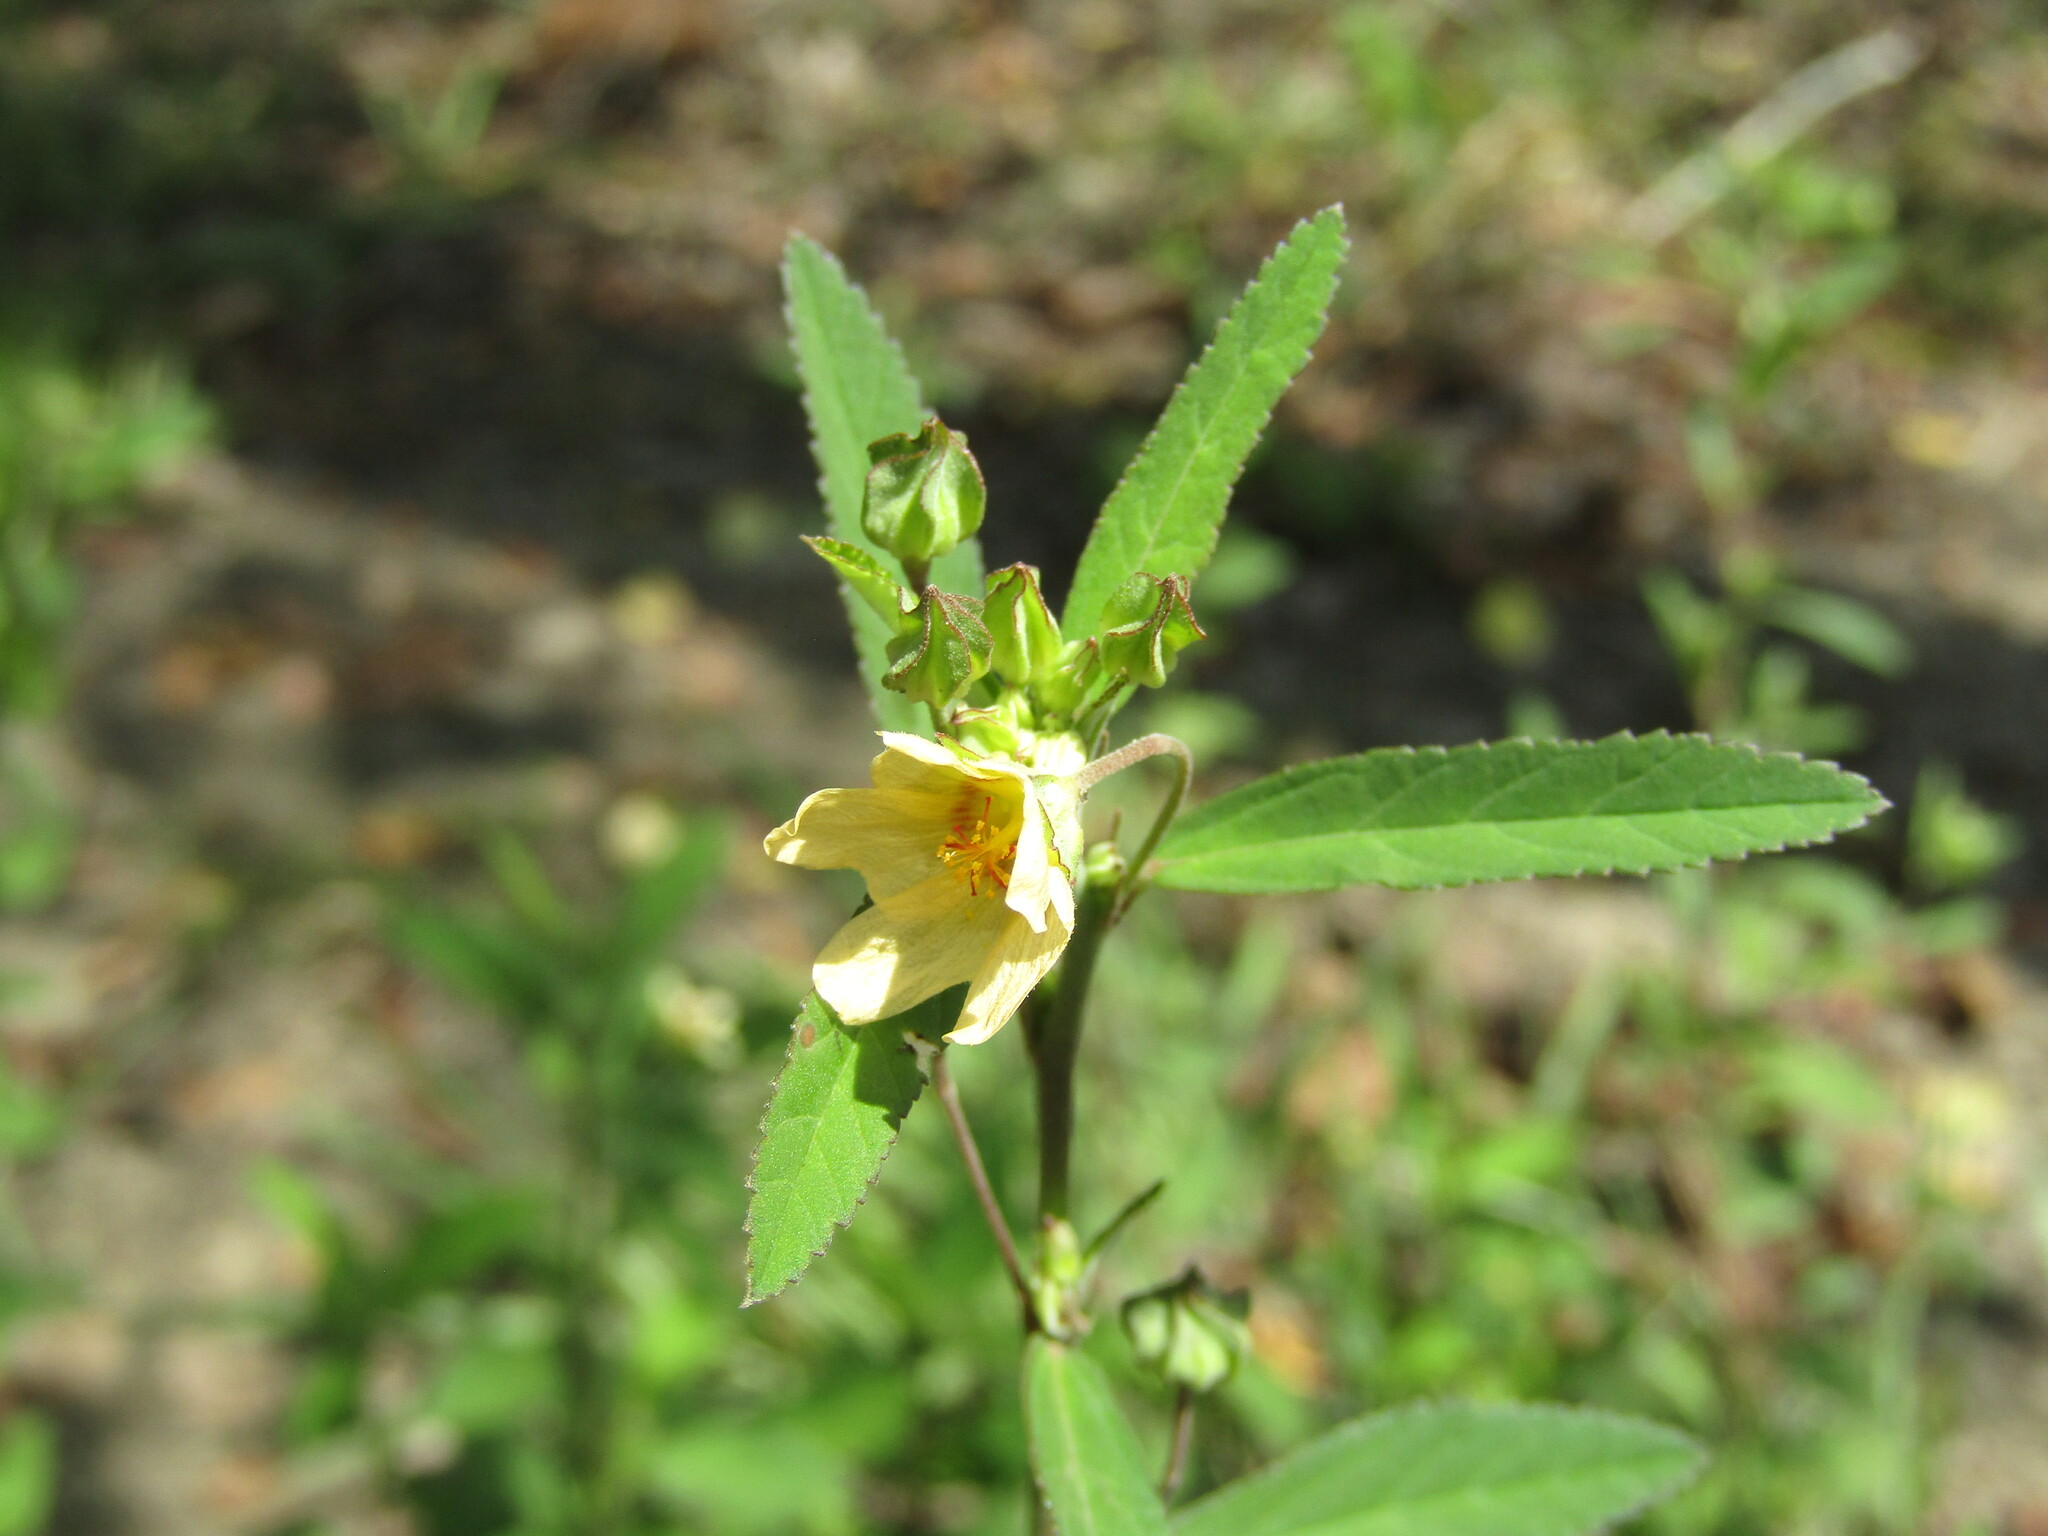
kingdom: Plantae
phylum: Tracheophyta
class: Magnoliopsida
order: Malvales
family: Malvaceae
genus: Sida
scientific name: Sida rhombifolia
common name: Queensland-hemp
